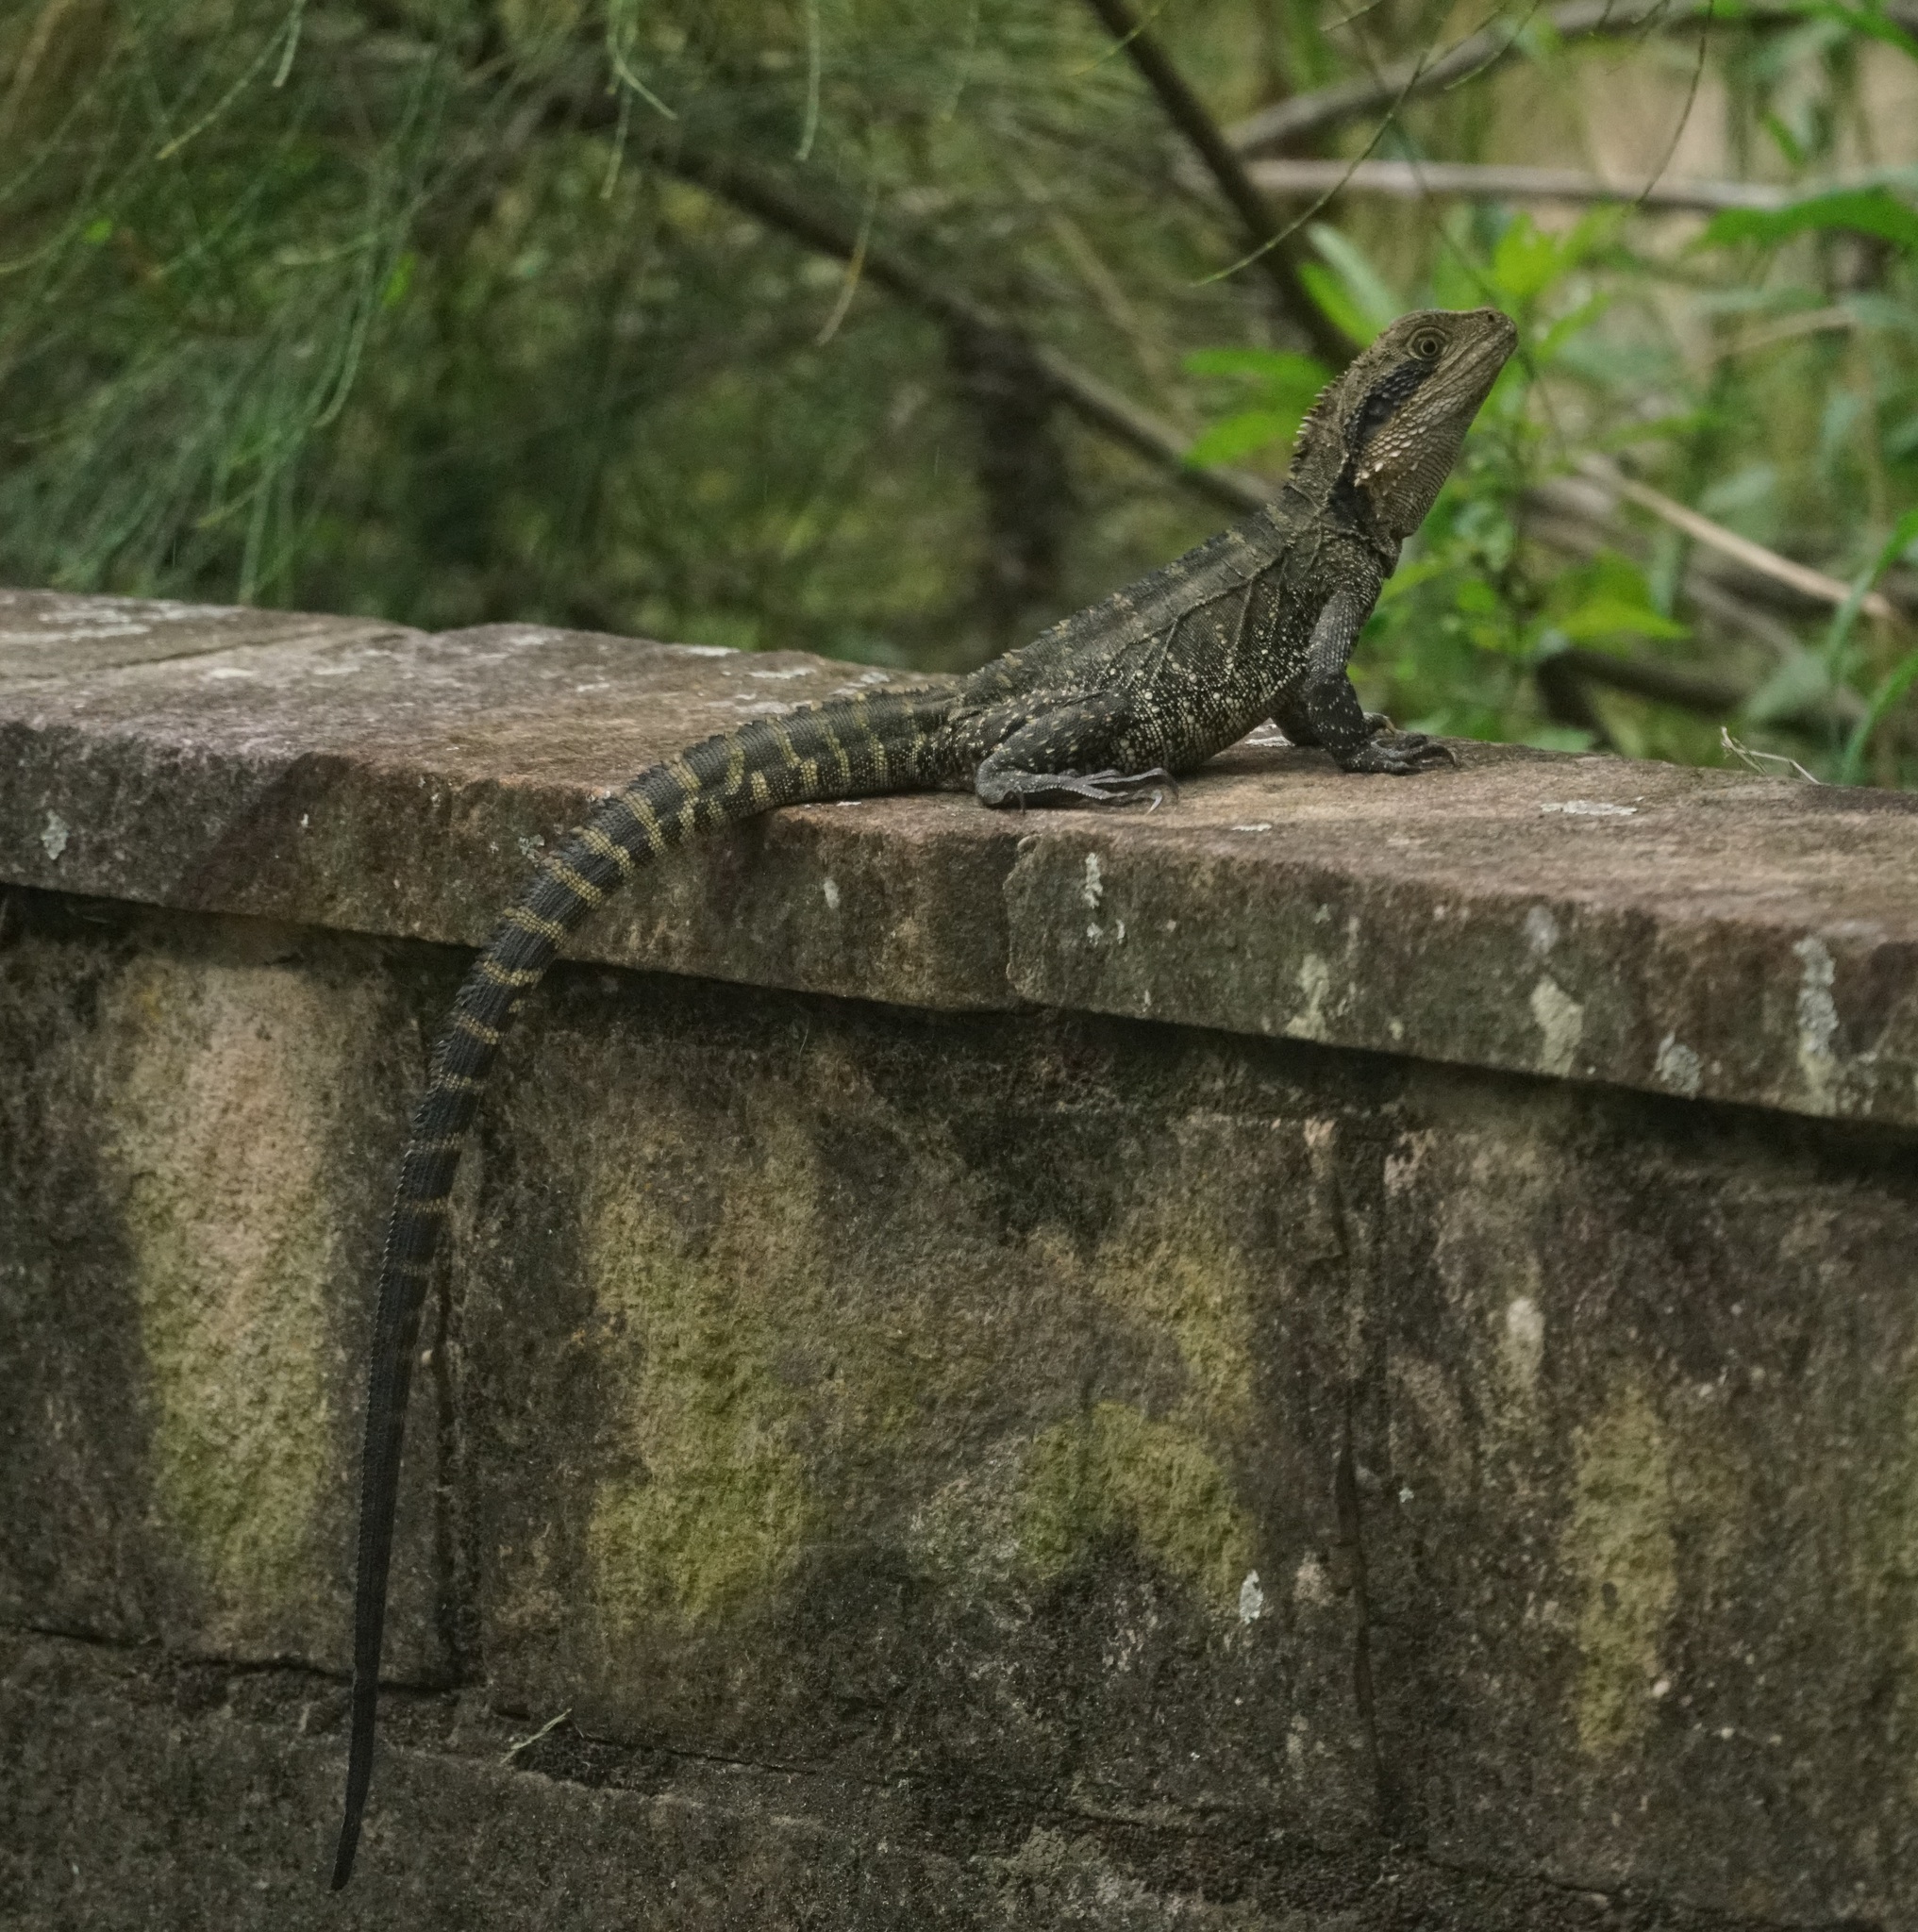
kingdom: Animalia
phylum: Chordata
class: Squamata
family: Agamidae
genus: Intellagama
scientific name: Intellagama lesueurii
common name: Eastern water dragon
